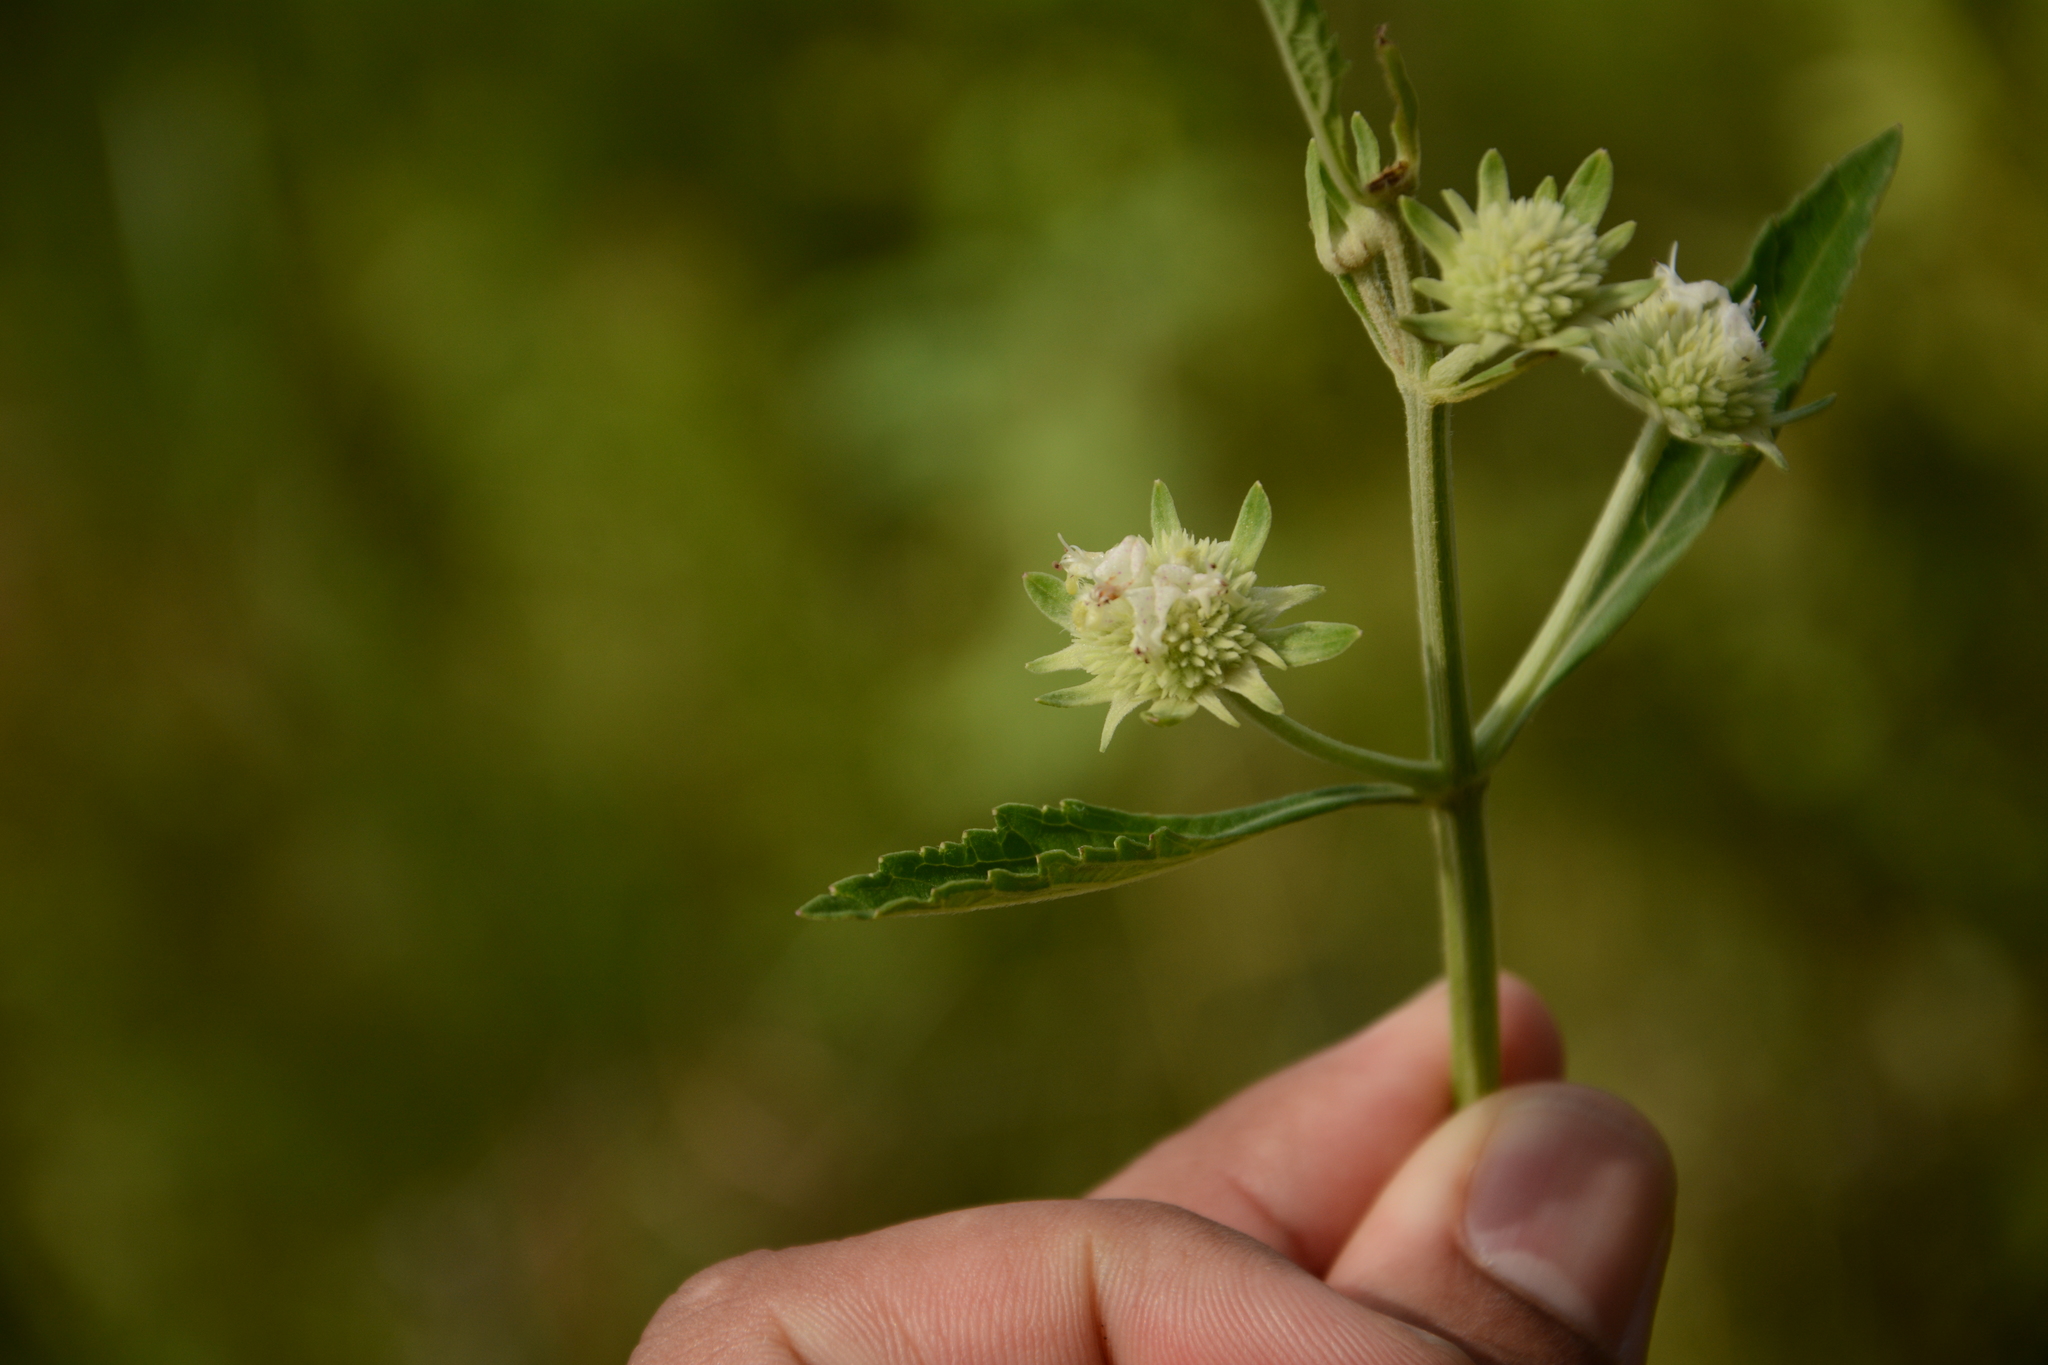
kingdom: Plantae
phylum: Tracheophyta
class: Magnoliopsida
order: Lamiales
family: Lamiaceae
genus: Hyptis
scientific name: Hyptis alata
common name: Cluster bush-mint
